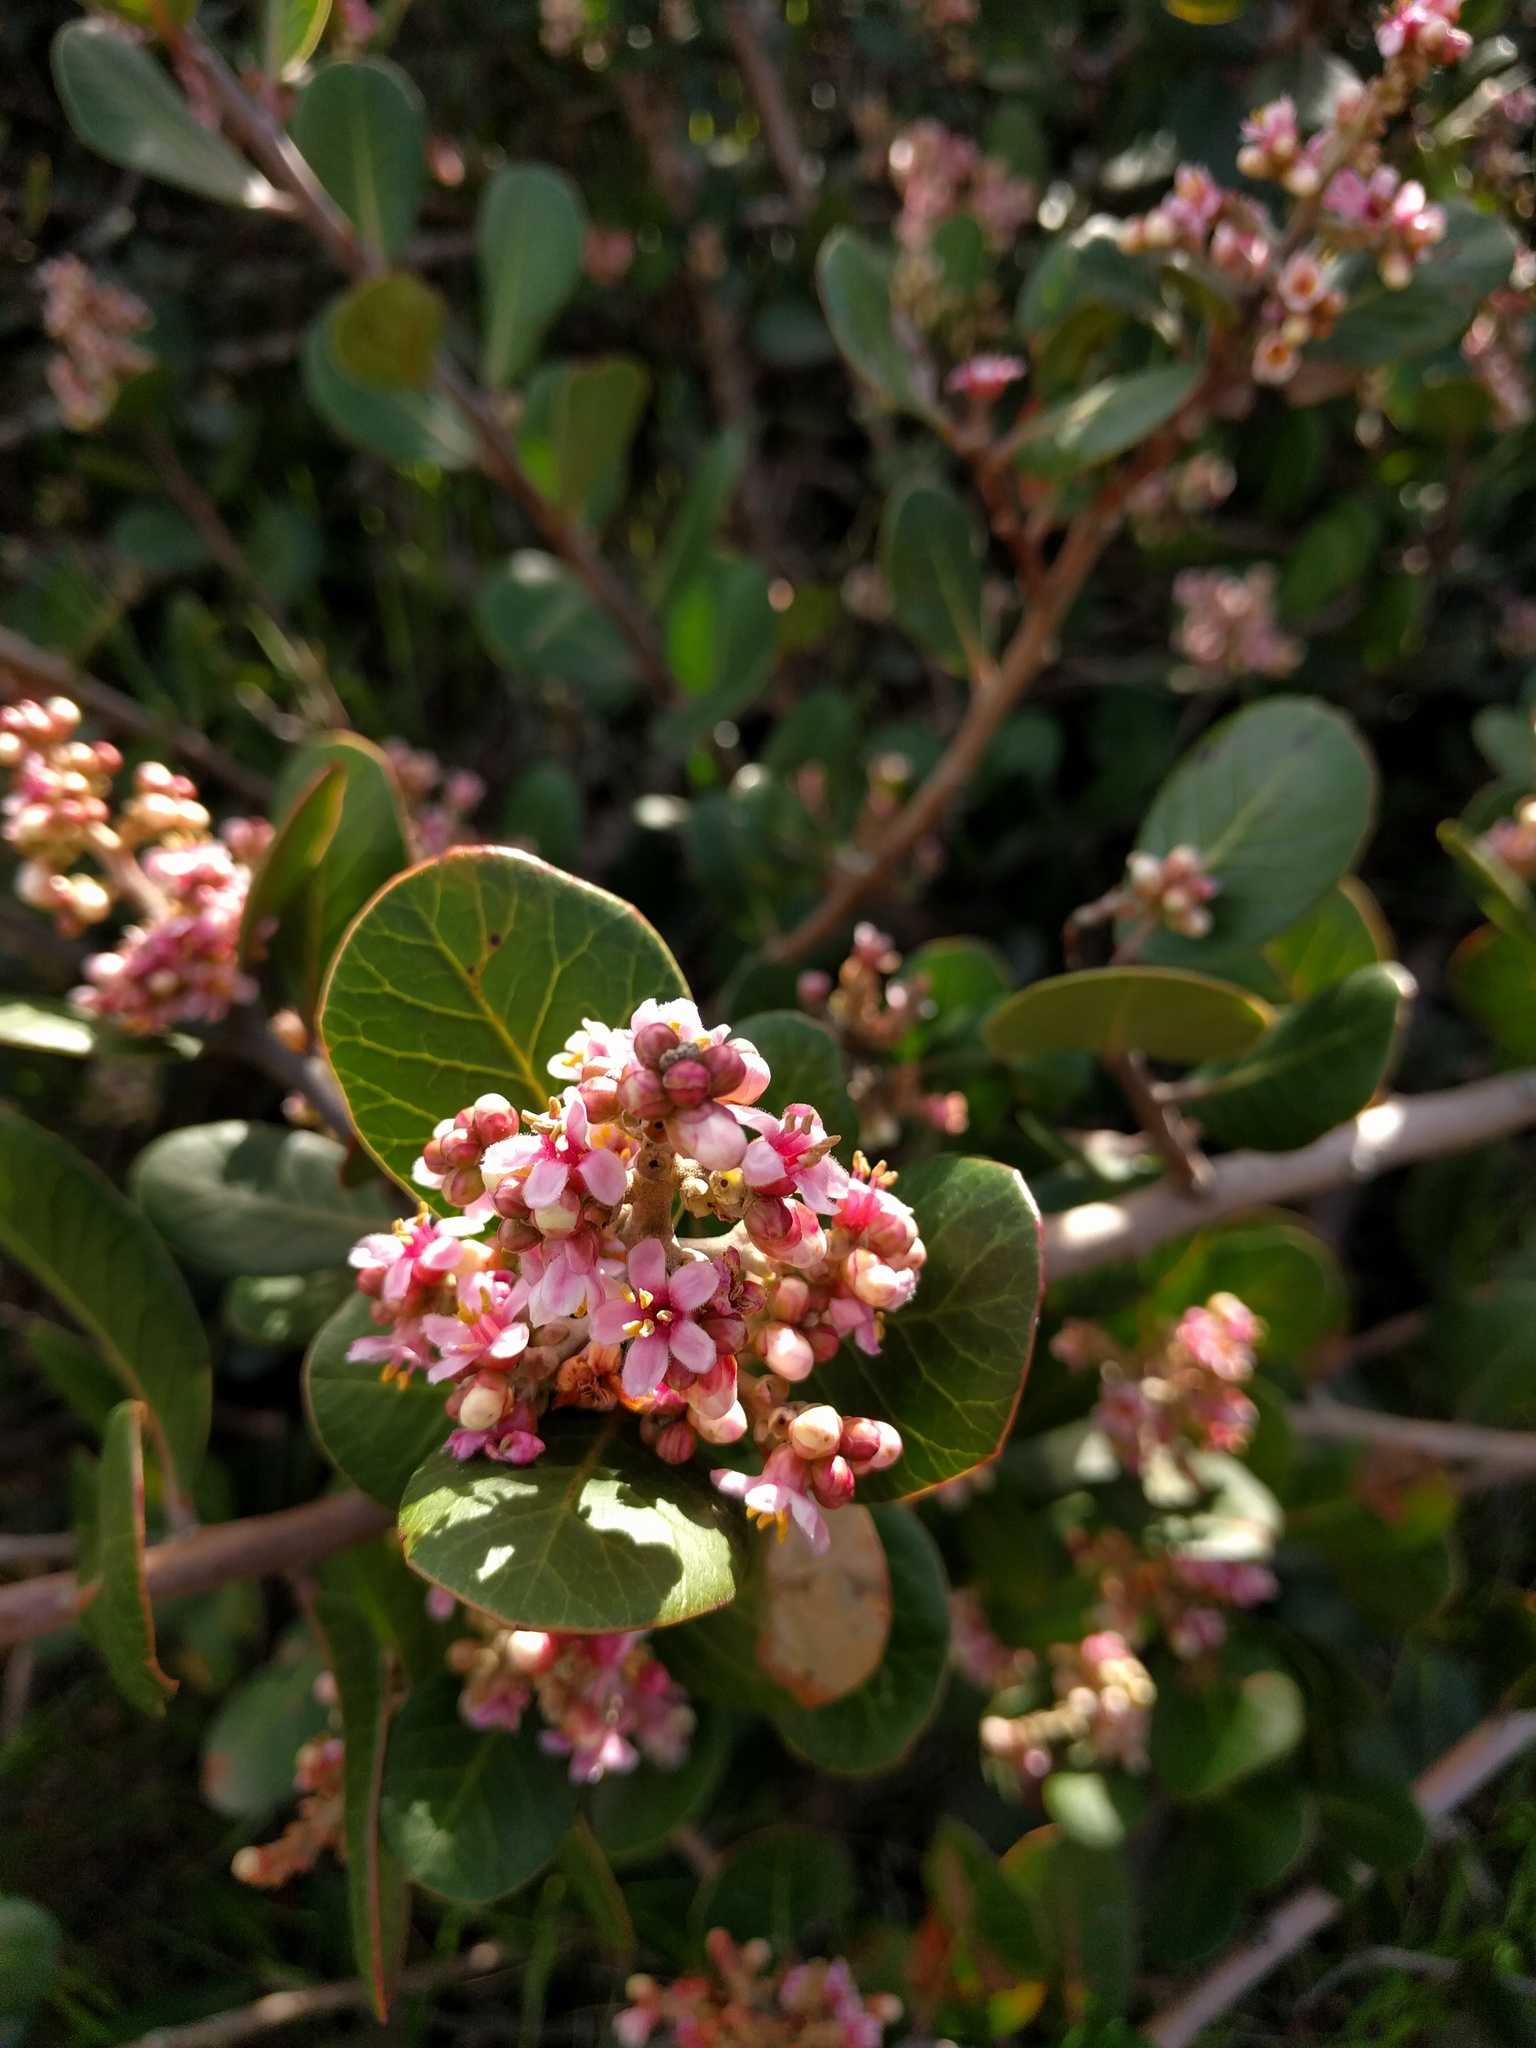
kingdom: Plantae
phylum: Tracheophyta
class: Magnoliopsida
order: Sapindales
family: Anacardiaceae
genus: Rhus
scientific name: Rhus integrifolia
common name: Lemonade sumac
